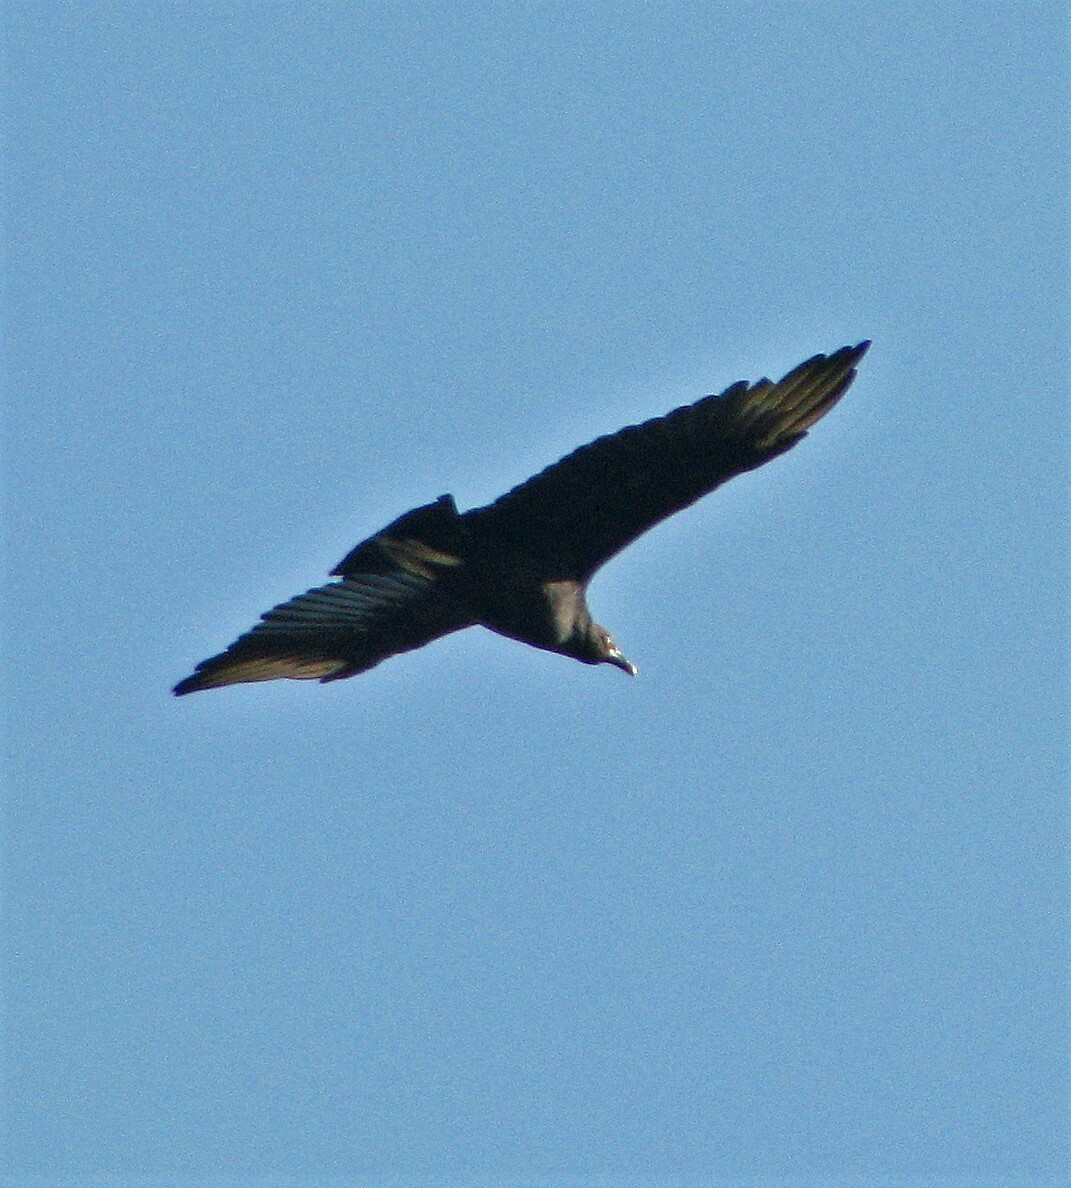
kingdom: Animalia
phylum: Chordata
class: Aves
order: Accipitriformes
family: Cathartidae
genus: Coragyps
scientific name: Coragyps atratus
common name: Black vulture
